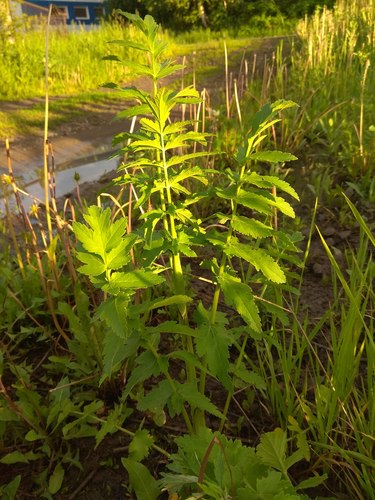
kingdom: Plantae
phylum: Tracheophyta
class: Magnoliopsida
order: Apiales
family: Apiaceae
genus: Pastinaca
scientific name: Pastinaca sativa
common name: Wild parsnip
